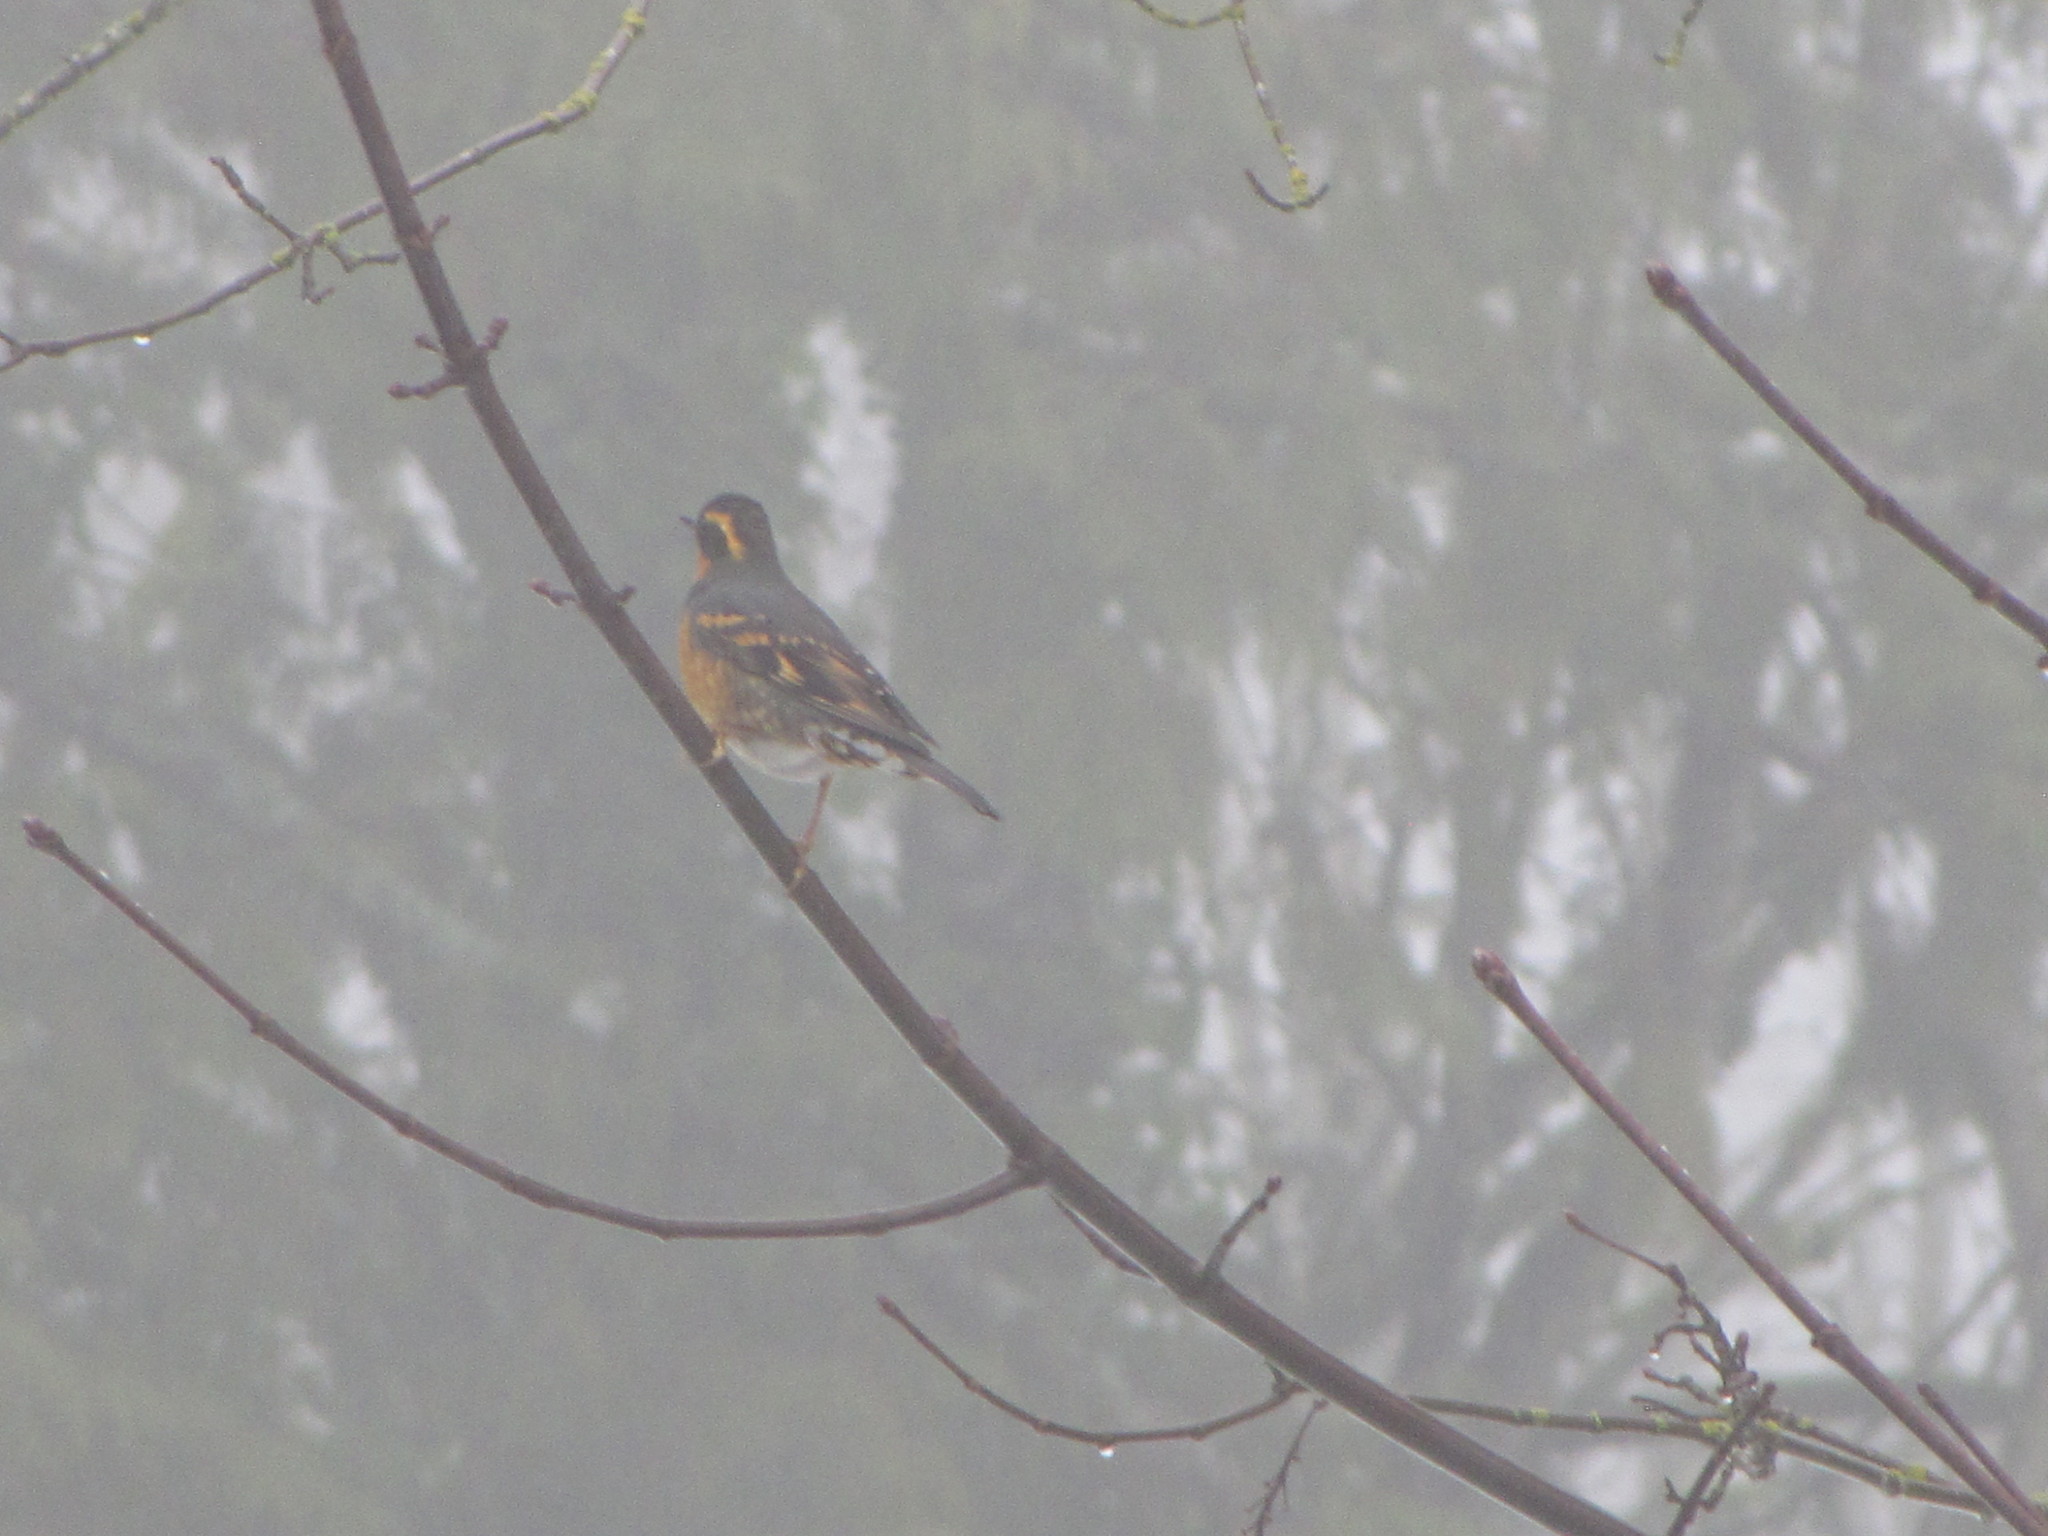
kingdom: Animalia
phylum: Chordata
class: Aves
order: Passeriformes
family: Turdidae
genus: Ixoreus
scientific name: Ixoreus naevius
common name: Varied thrush
